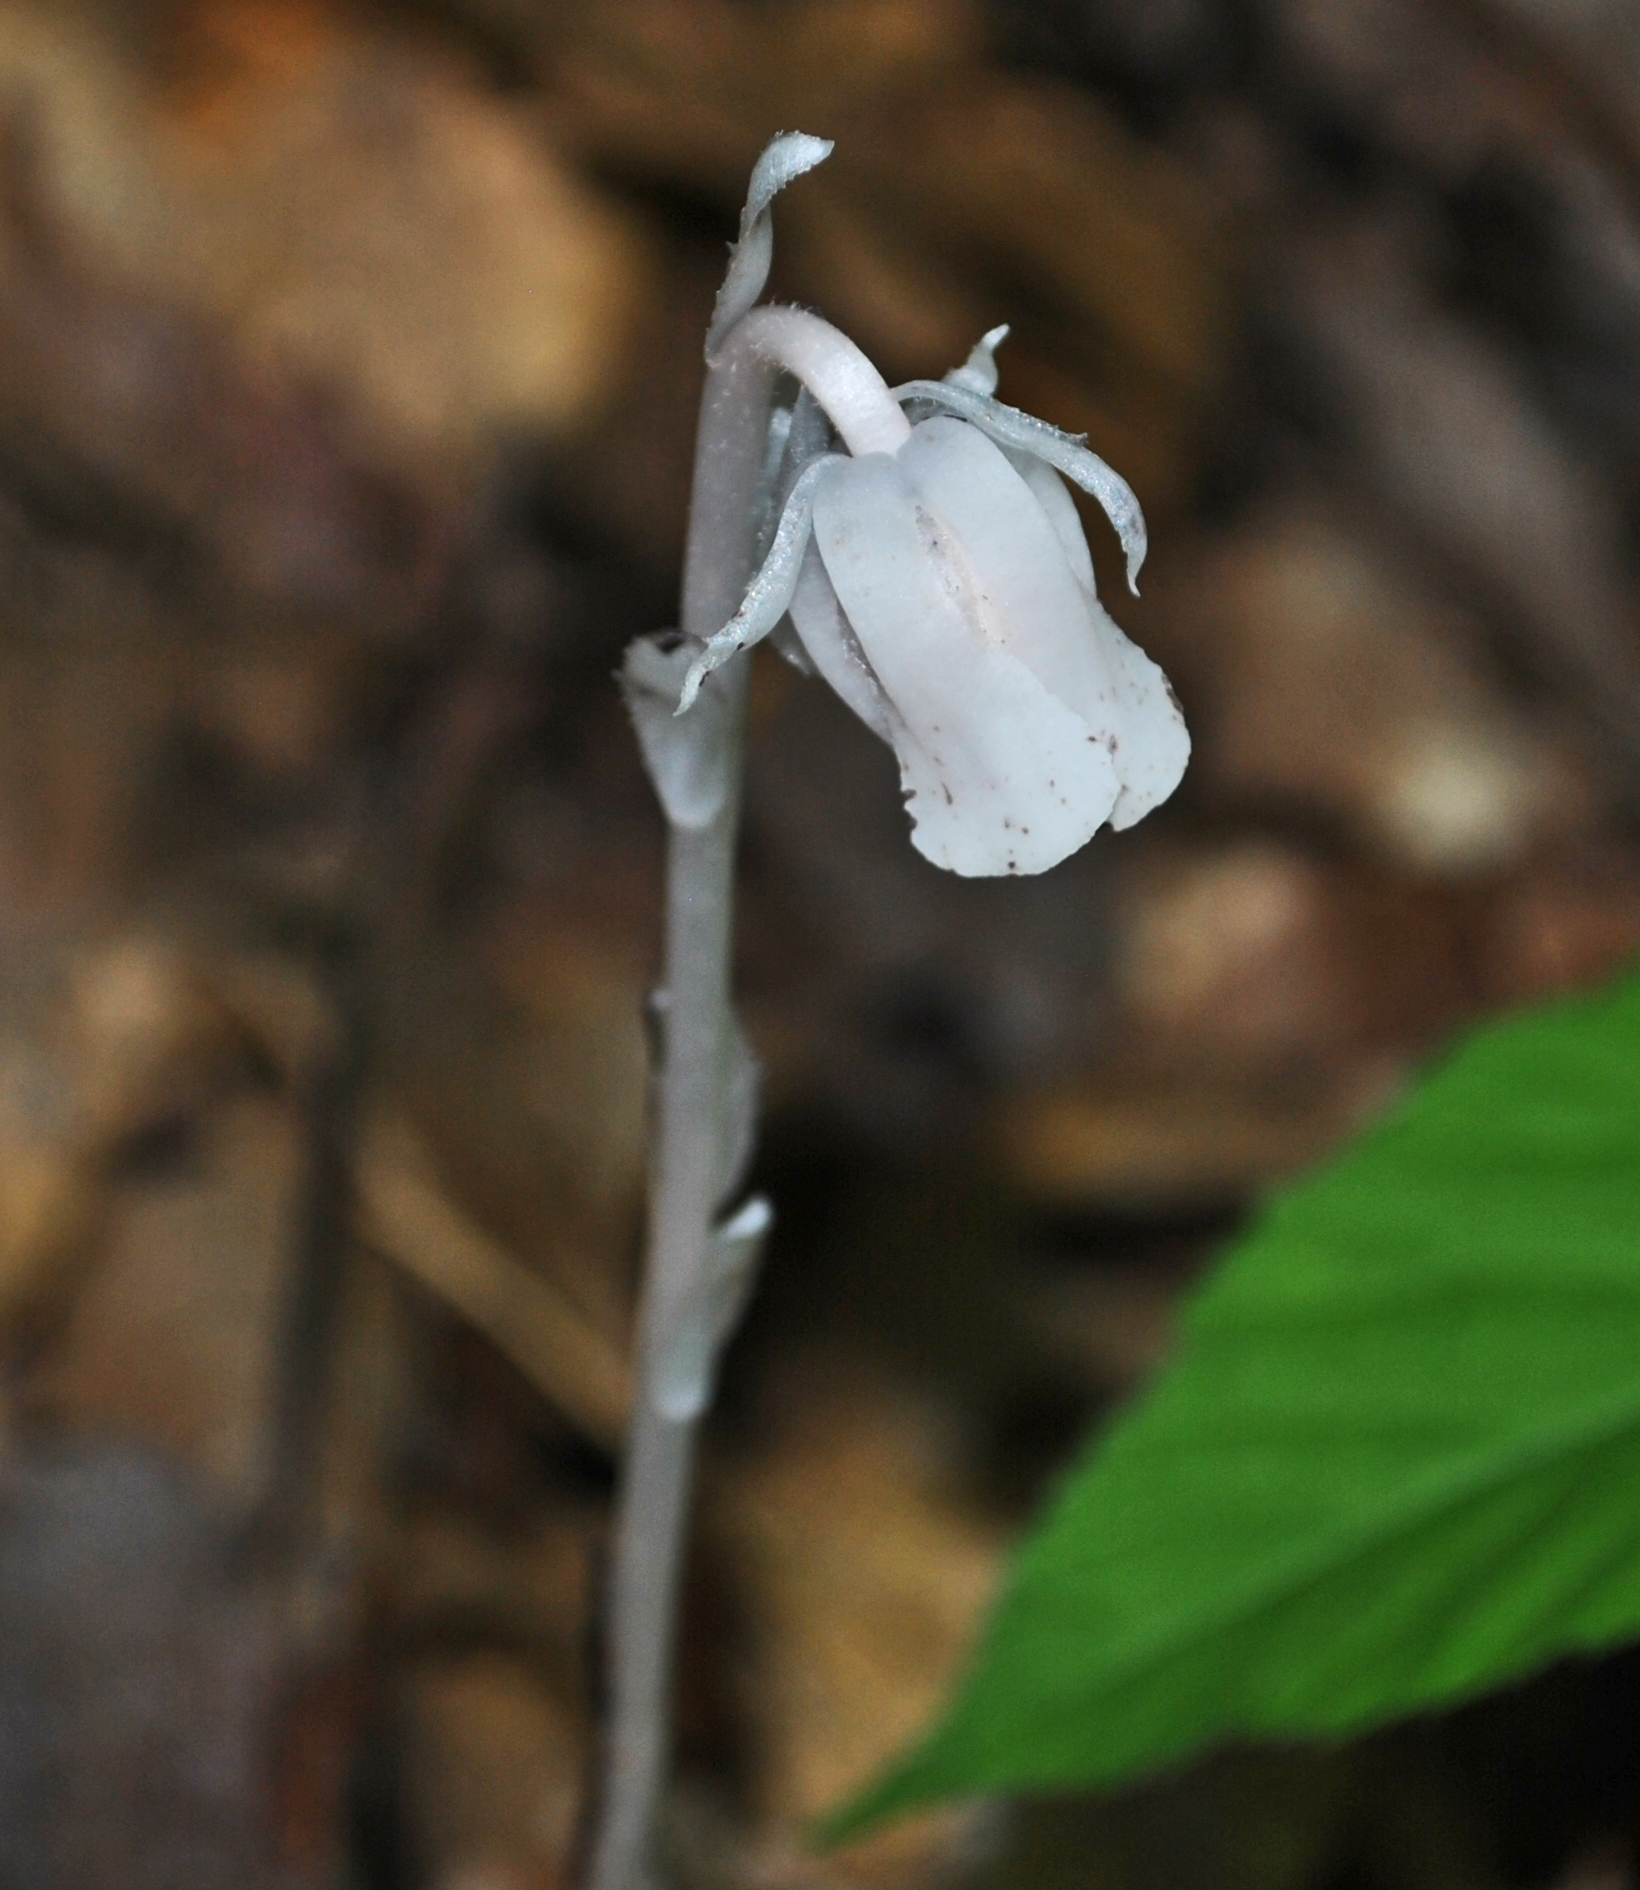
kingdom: Plantae
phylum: Tracheophyta
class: Magnoliopsida
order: Ericales
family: Ericaceae
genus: Monotropa
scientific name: Monotropa uniflora
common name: Convulsion root
